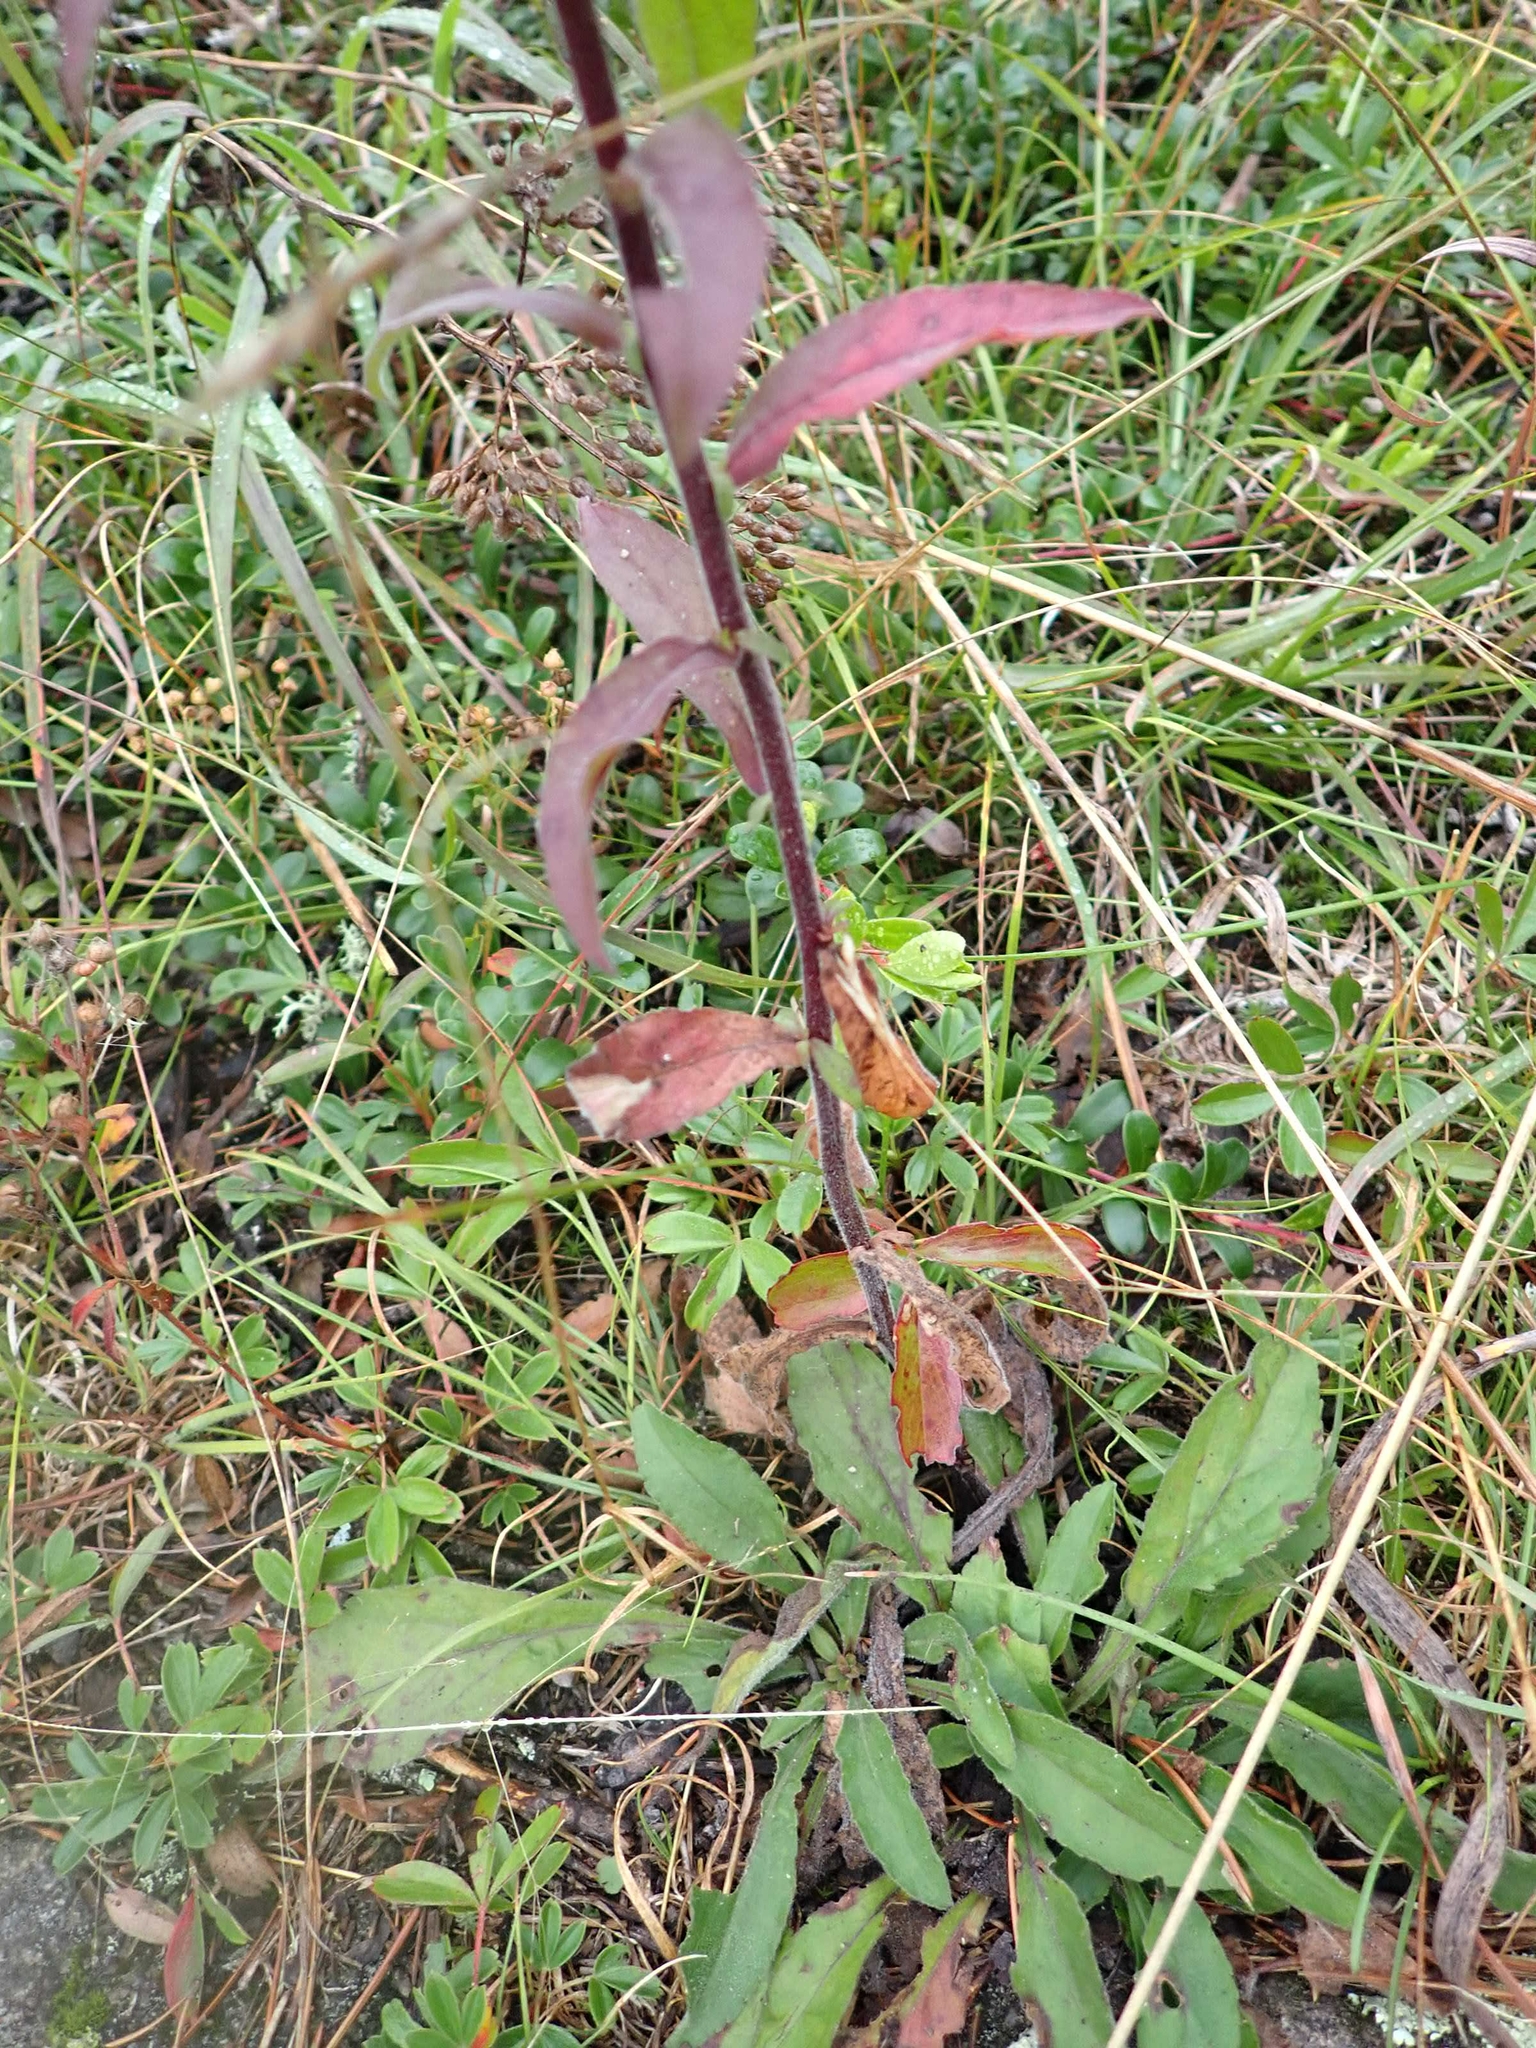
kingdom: Plantae
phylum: Tracheophyta
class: Magnoliopsida
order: Asterales
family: Asteraceae
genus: Solidago
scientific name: Solidago hispida
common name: Hairy goldenrod
